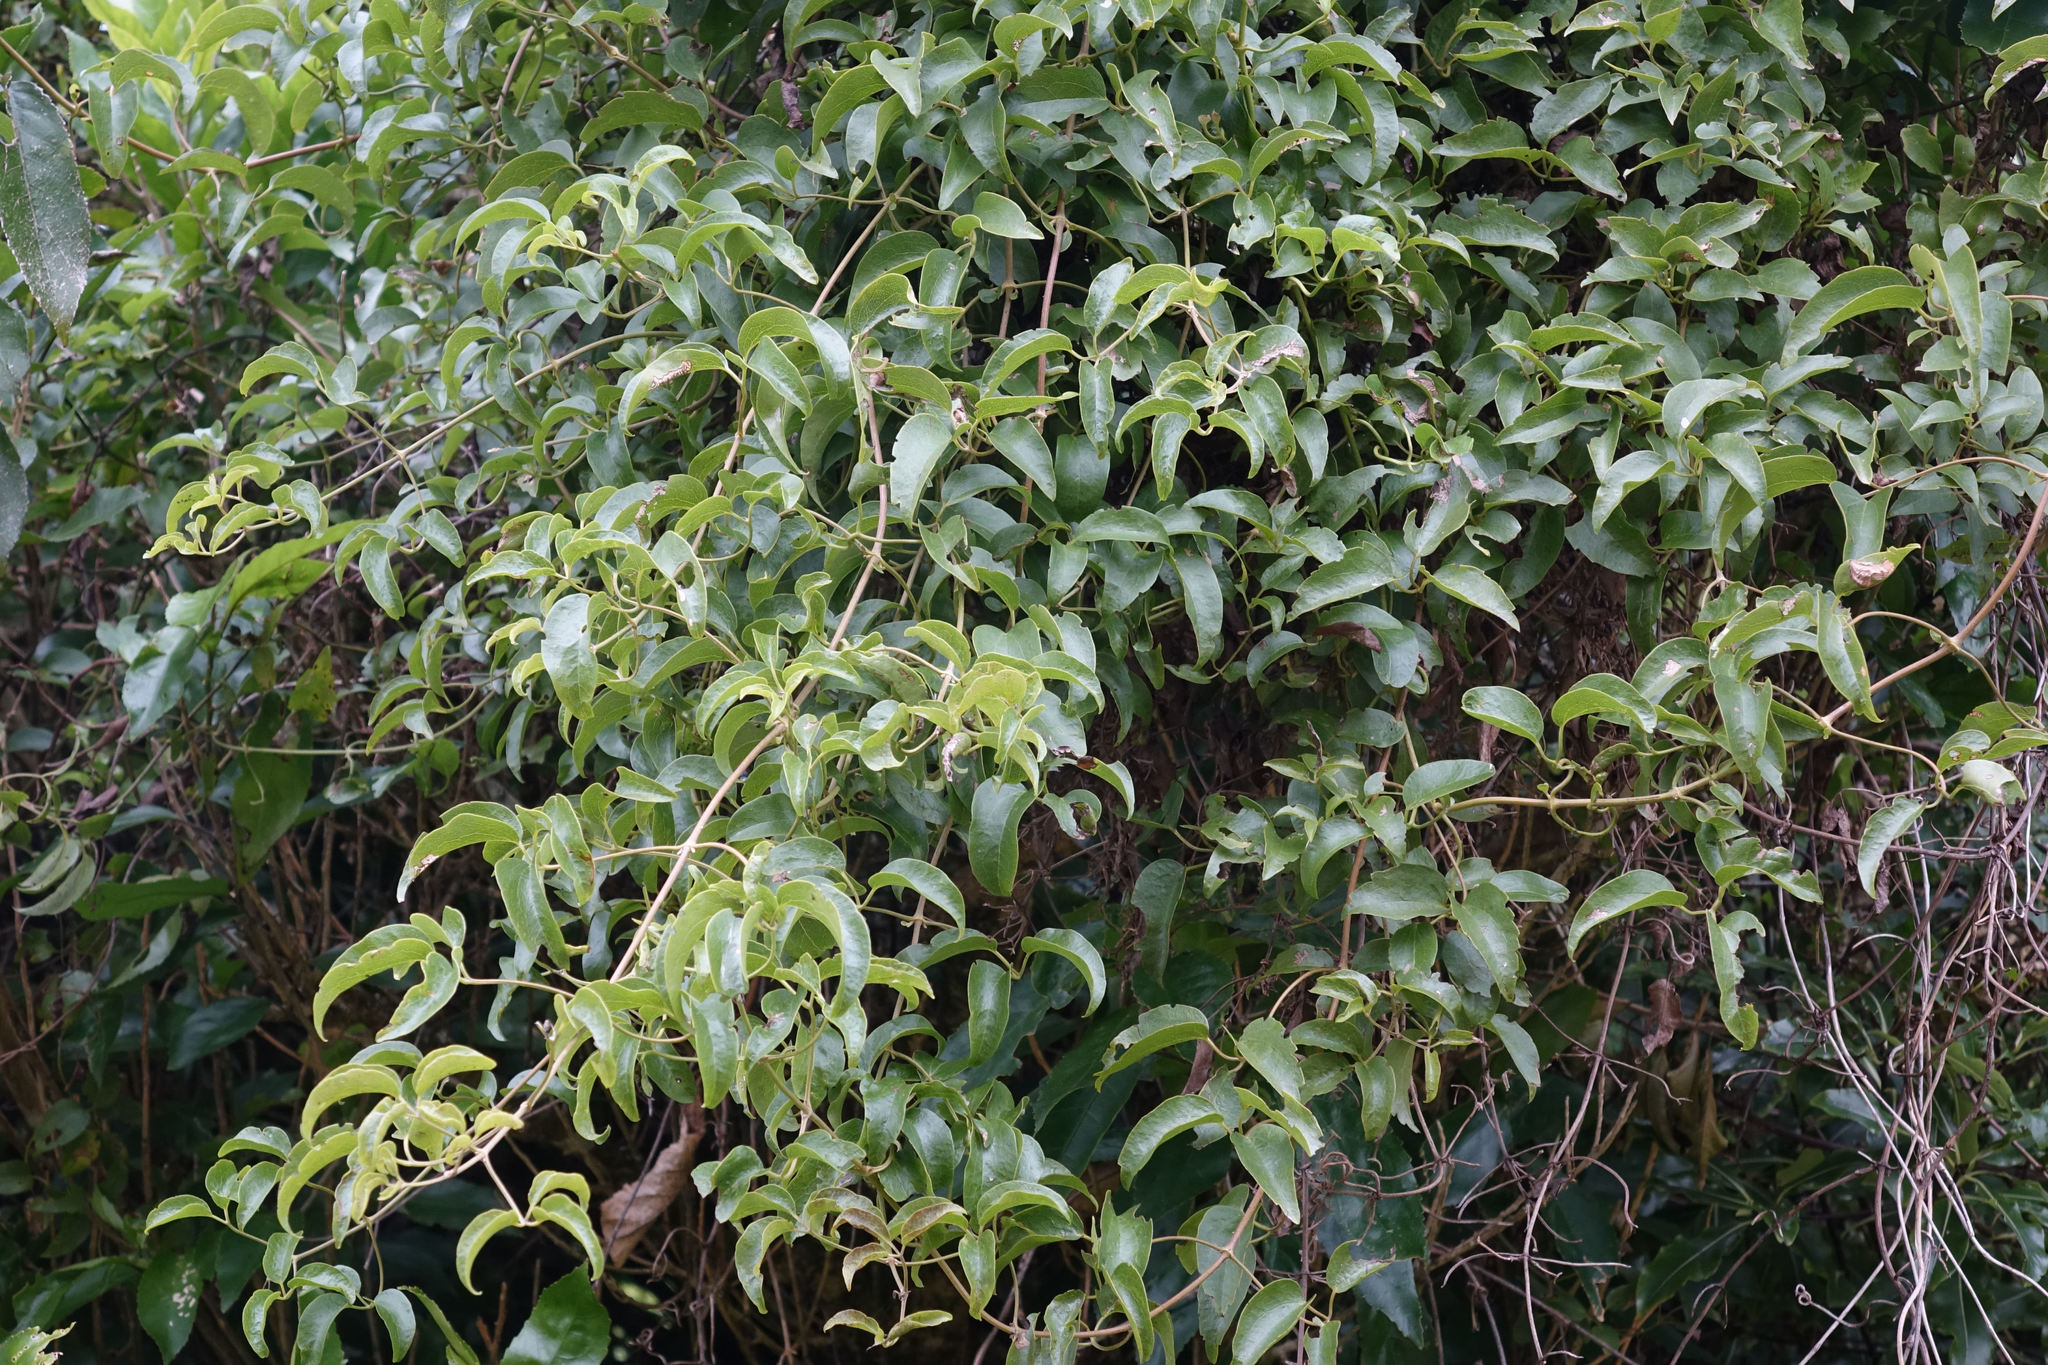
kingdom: Plantae
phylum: Tracheophyta
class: Magnoliopsida
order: Ranunculales
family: Ranunculaceae
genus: Clematis
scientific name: Clematis foetida
